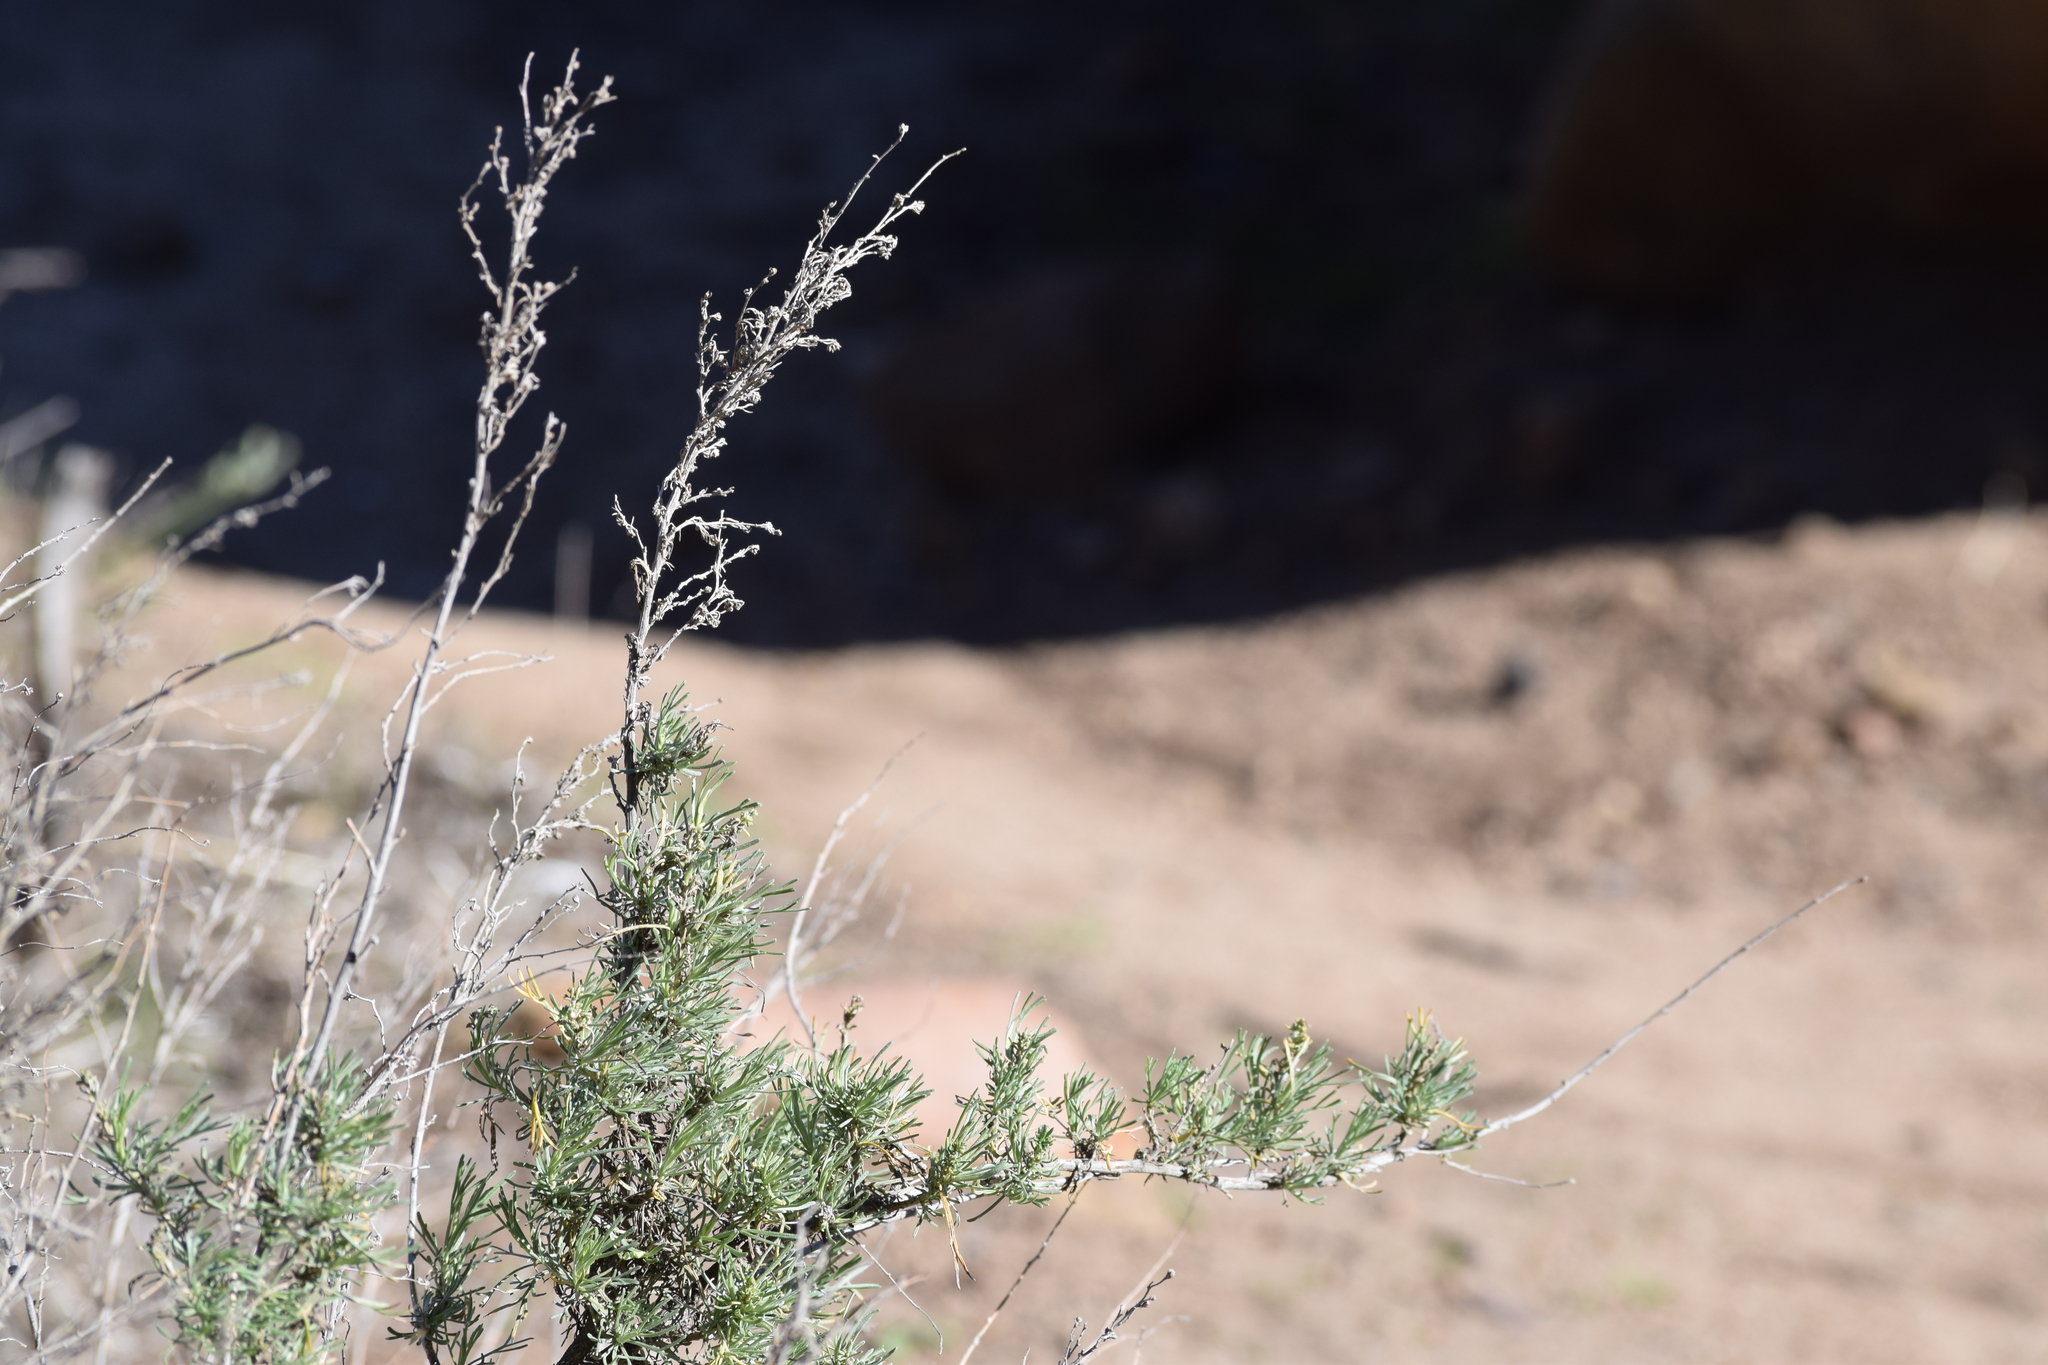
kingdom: Plantae
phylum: Tracheophyta
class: Magnoliopsida
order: Asterales
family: Asteraceae
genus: Artemisia
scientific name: Artemisia californica
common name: California sagebrush
